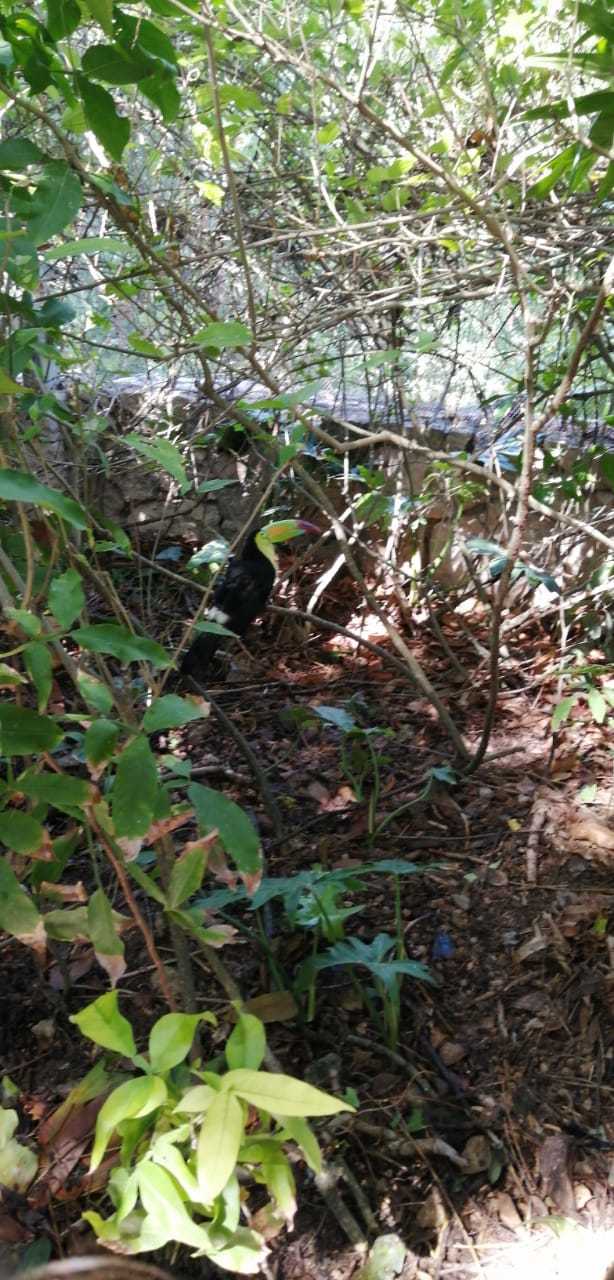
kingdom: Animalia
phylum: Chordata
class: Aves
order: Piciformes
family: Ramphastidae
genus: Ramphastos
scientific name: Ramphastos sulfuratus
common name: Keel-billed toucan
